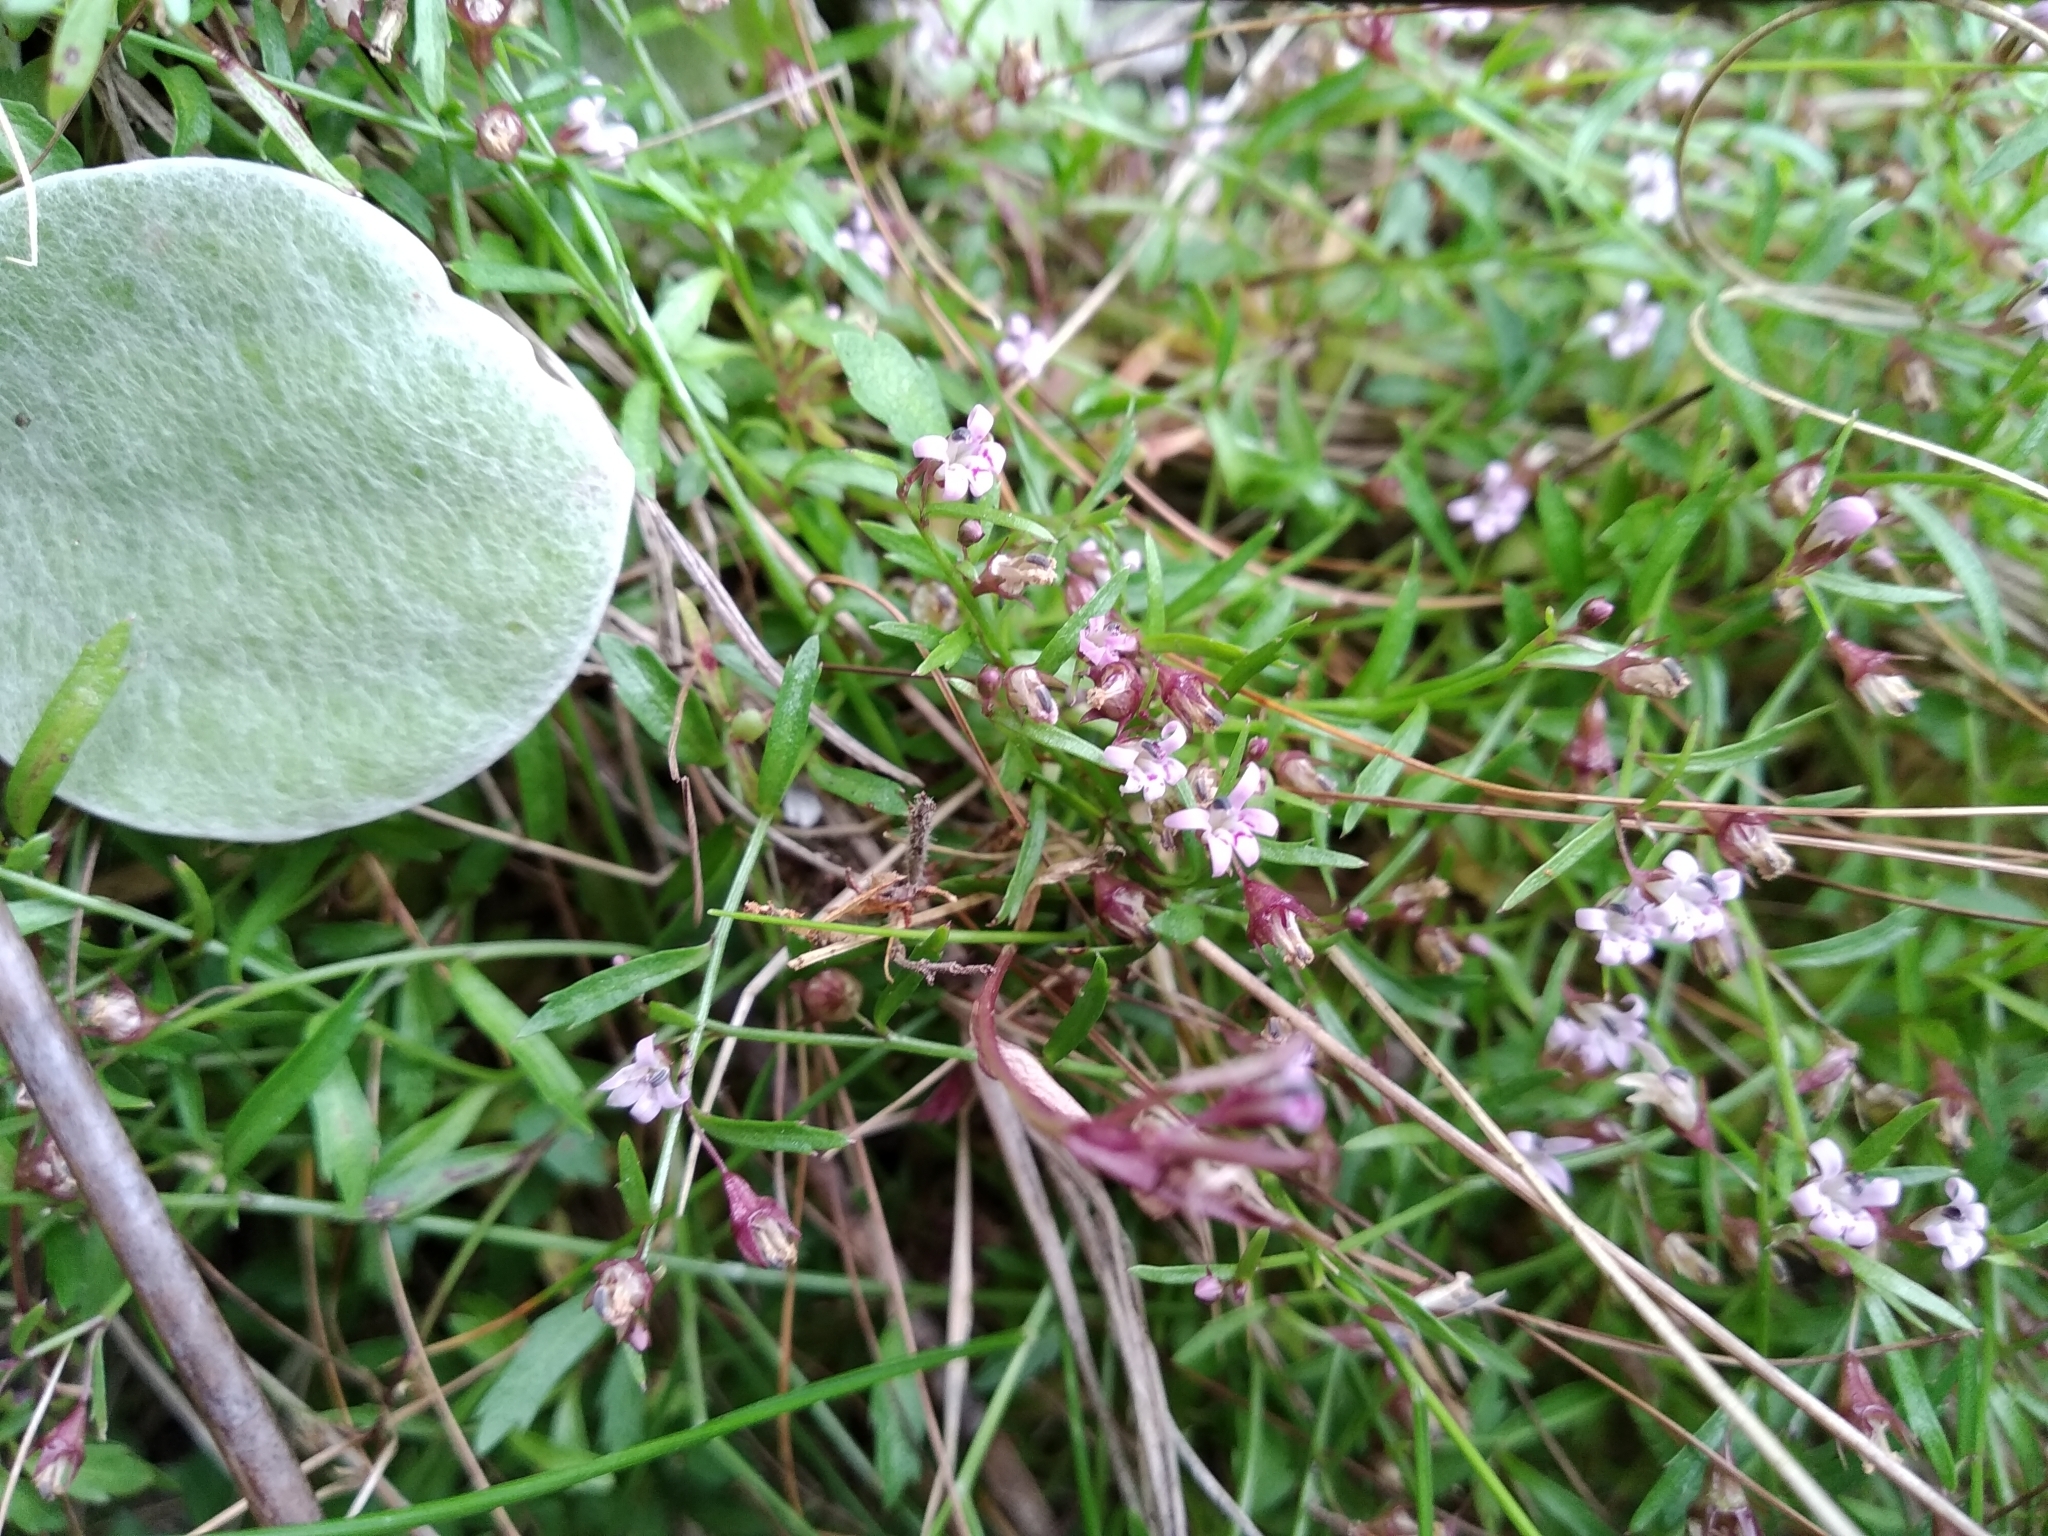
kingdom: Plantae
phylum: Tracheophyta
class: Magnoliopsida
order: Asterales
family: Campanulaceae
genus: Lobelia
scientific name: Lobelia eckloniana
